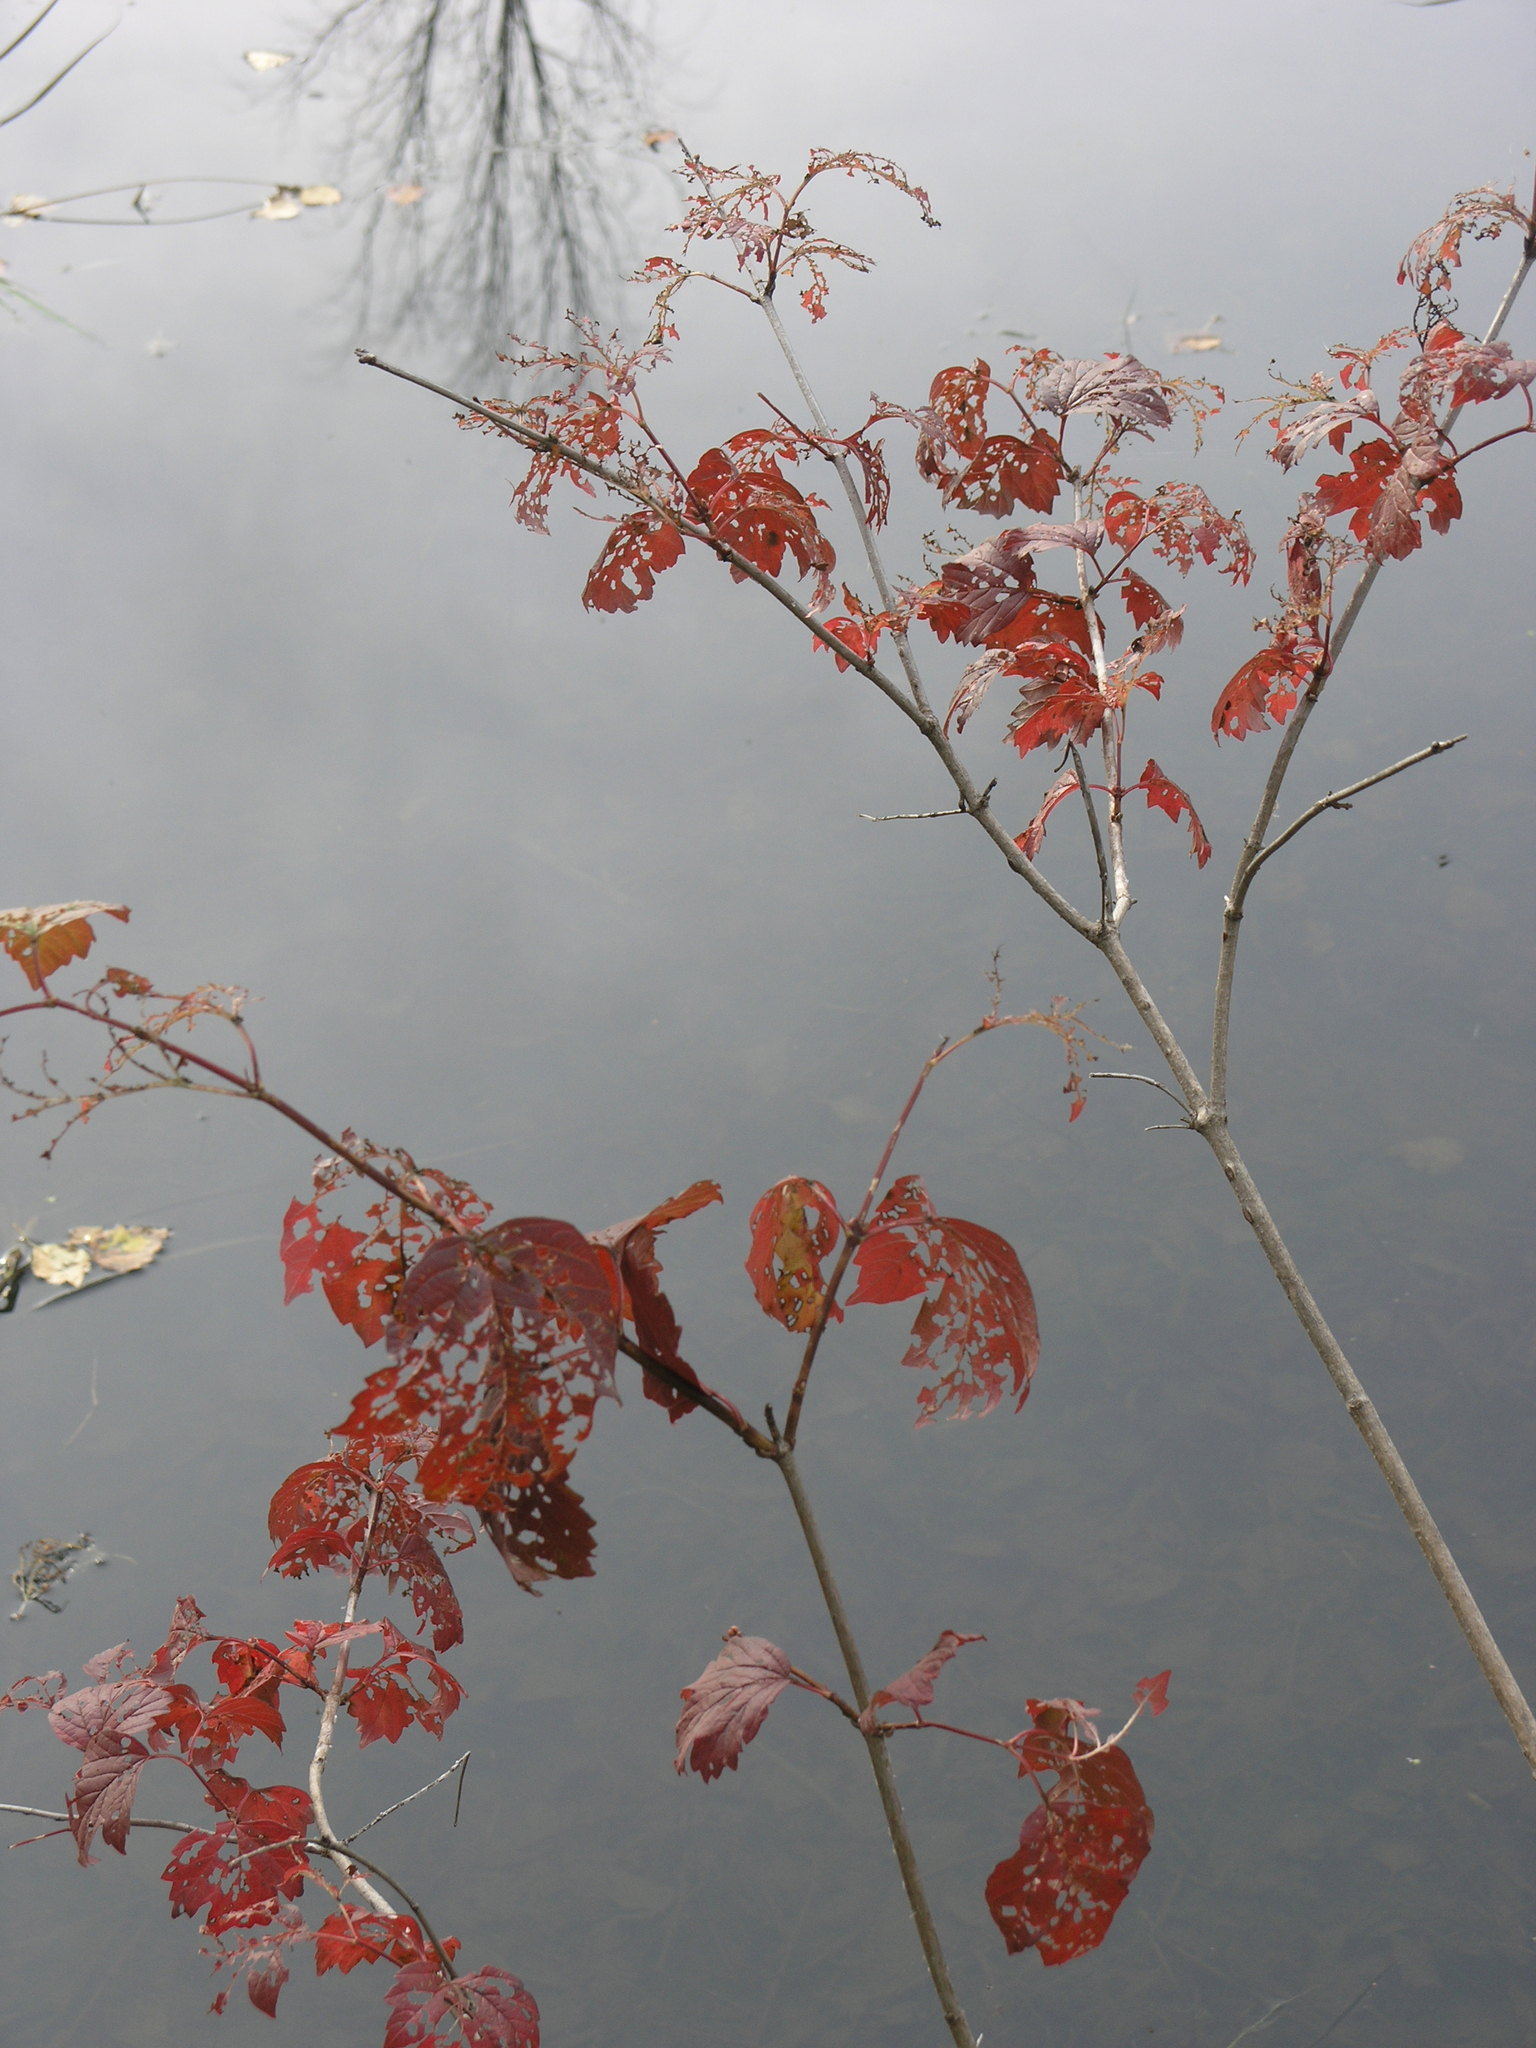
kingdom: Plantae
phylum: Tracheophyta
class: Magnoliopsida
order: Dipsacales
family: Viburnaceae
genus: Viburnum
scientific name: Viburnum opulus
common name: Guelder-rose
